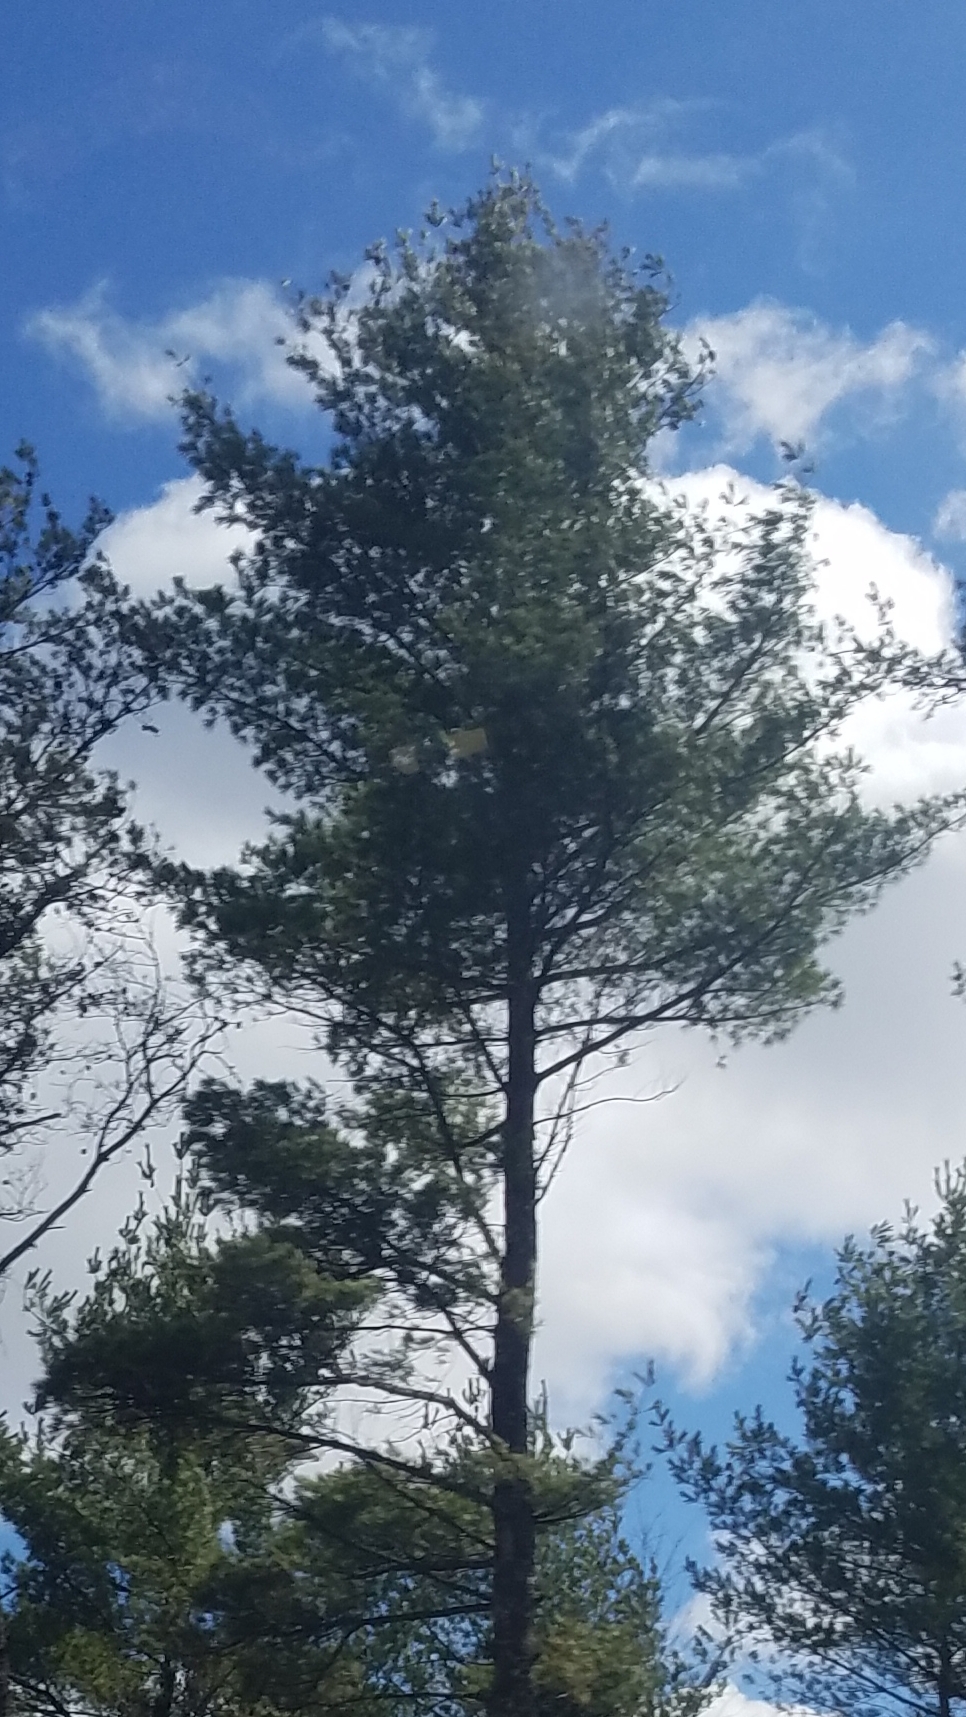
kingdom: Plantae
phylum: Tracheophyta
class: Pinopsida
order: Pinales
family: Pinaceae
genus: Pinus
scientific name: Pinus strobus
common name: Weymouth pine
